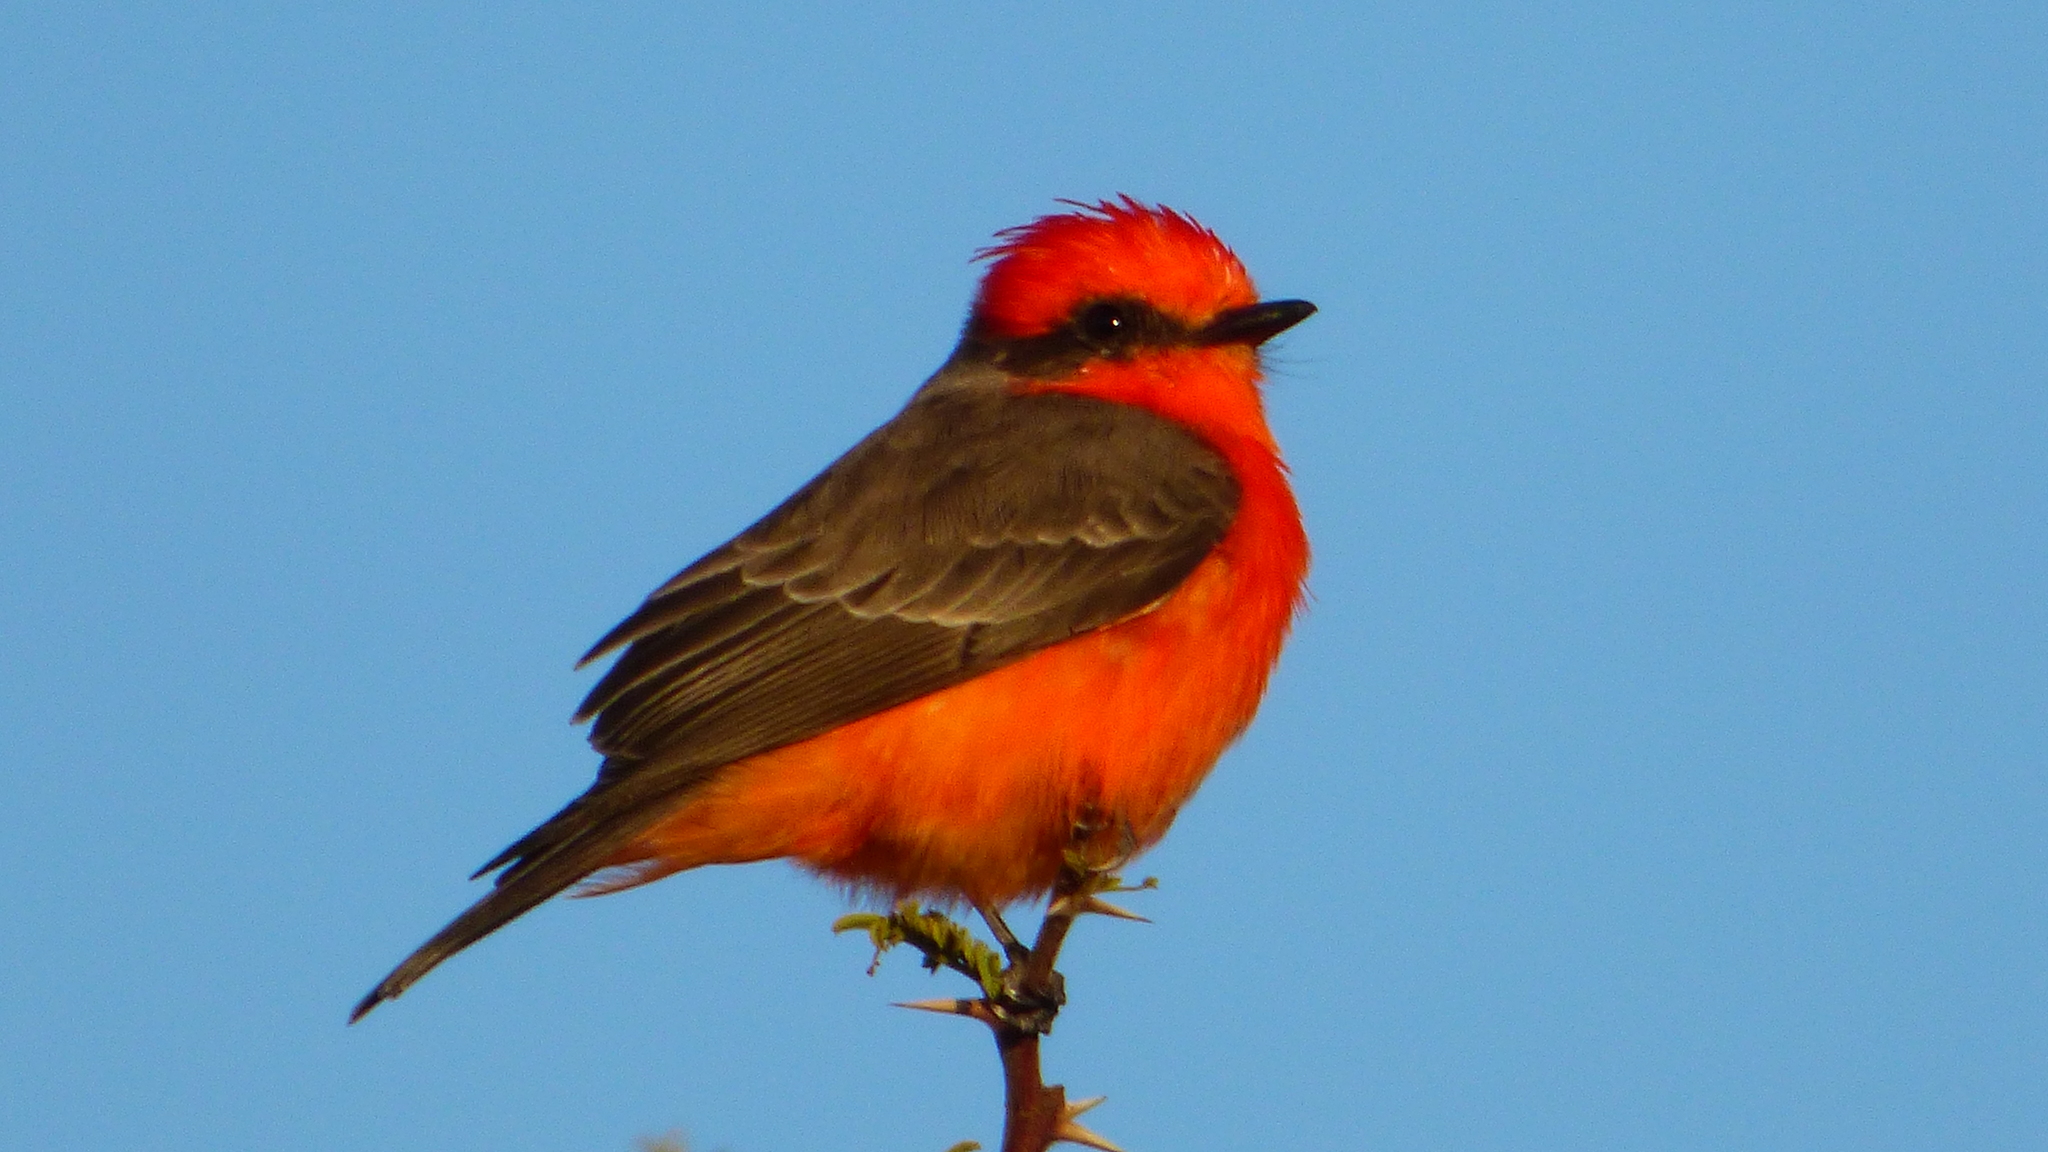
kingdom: Animalia
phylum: Chordata
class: Aves
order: Passeriformes
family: Tyrannidae
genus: Pyrocephalus
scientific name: Pyrocephalus rubinus
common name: Vermilion flycatcher
